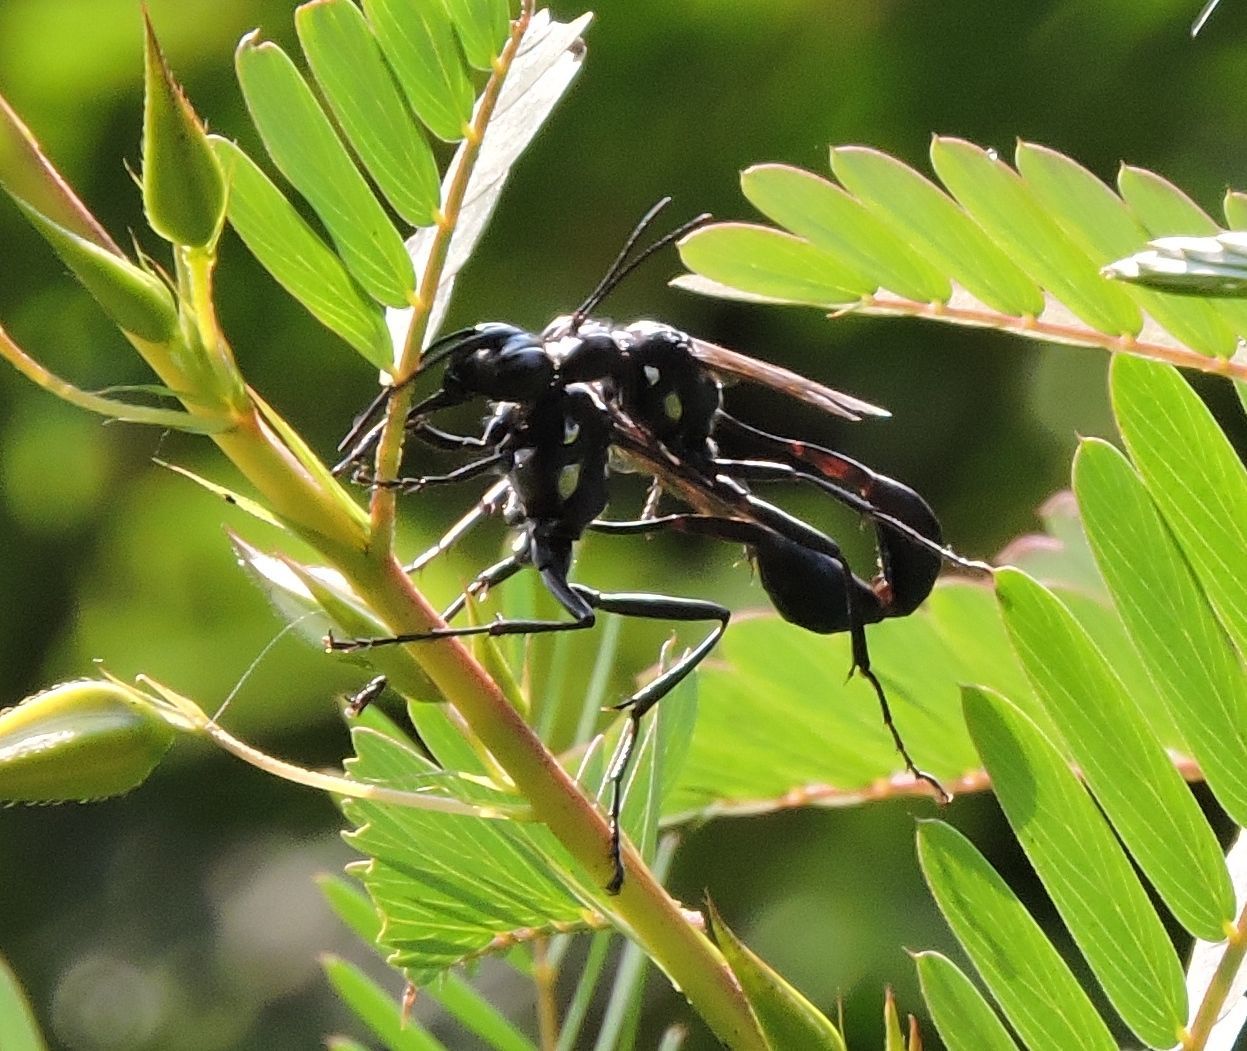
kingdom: Animalia
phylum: Arthropoda
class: Insecta
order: Hymenoptera
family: Sphecidae
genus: Eremnophila
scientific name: Eremnophila aureonotata
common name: Gold-marked thread-waisted wasp
